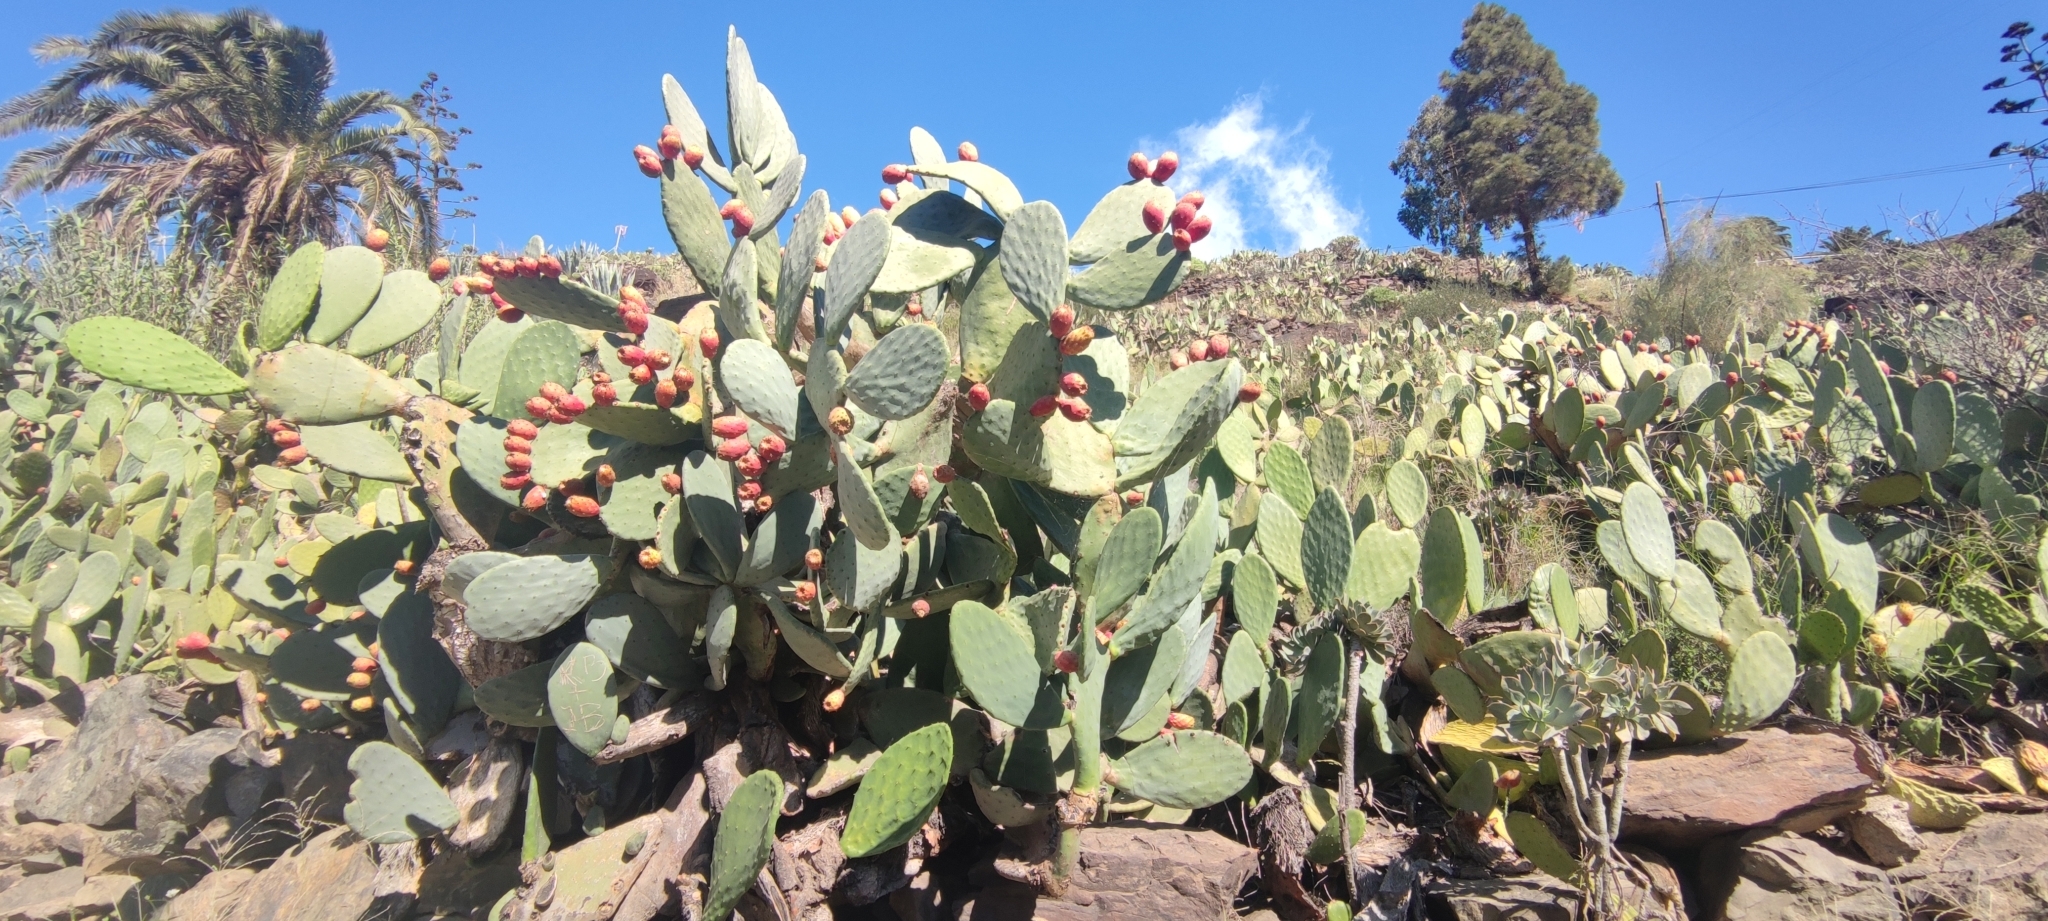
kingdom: Plantae
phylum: Tracheophyta
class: Magnoliopsida
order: Caryophyllales
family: Cactaceae
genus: Opuntia
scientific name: Opuntia ficus-indica
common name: Barbary fig
